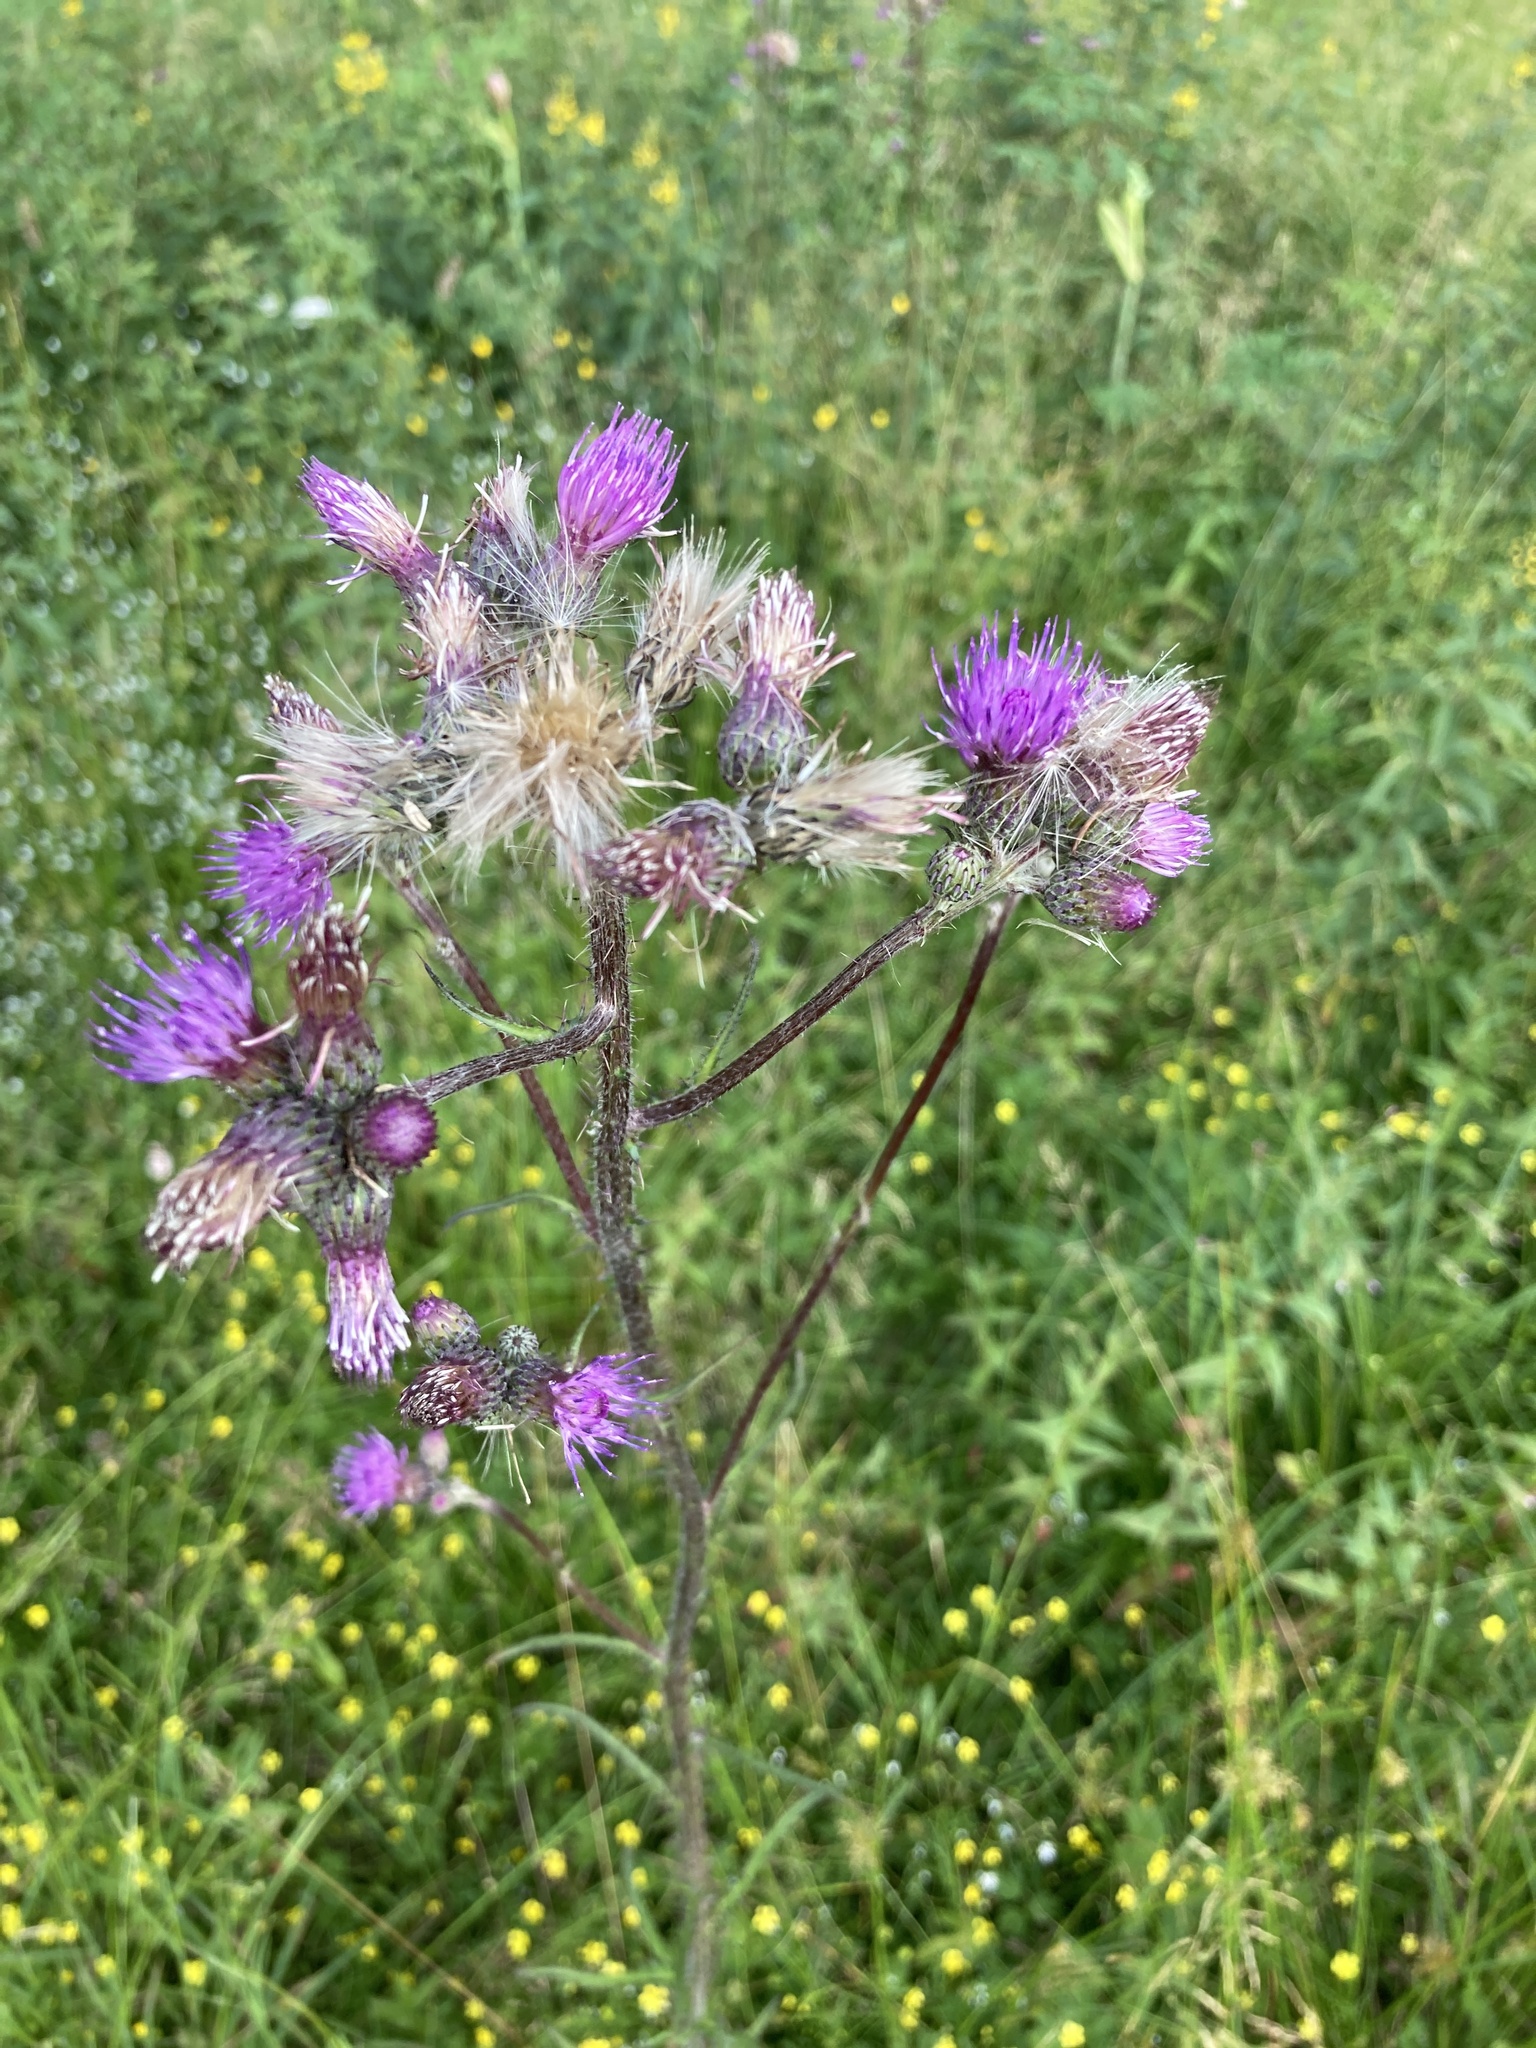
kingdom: Plantae
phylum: Tracheophyta
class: Magnoliopsida
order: Asterales
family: Asteraceae
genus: Cirsium
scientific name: Cirsium palustre
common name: Marsh thistle
